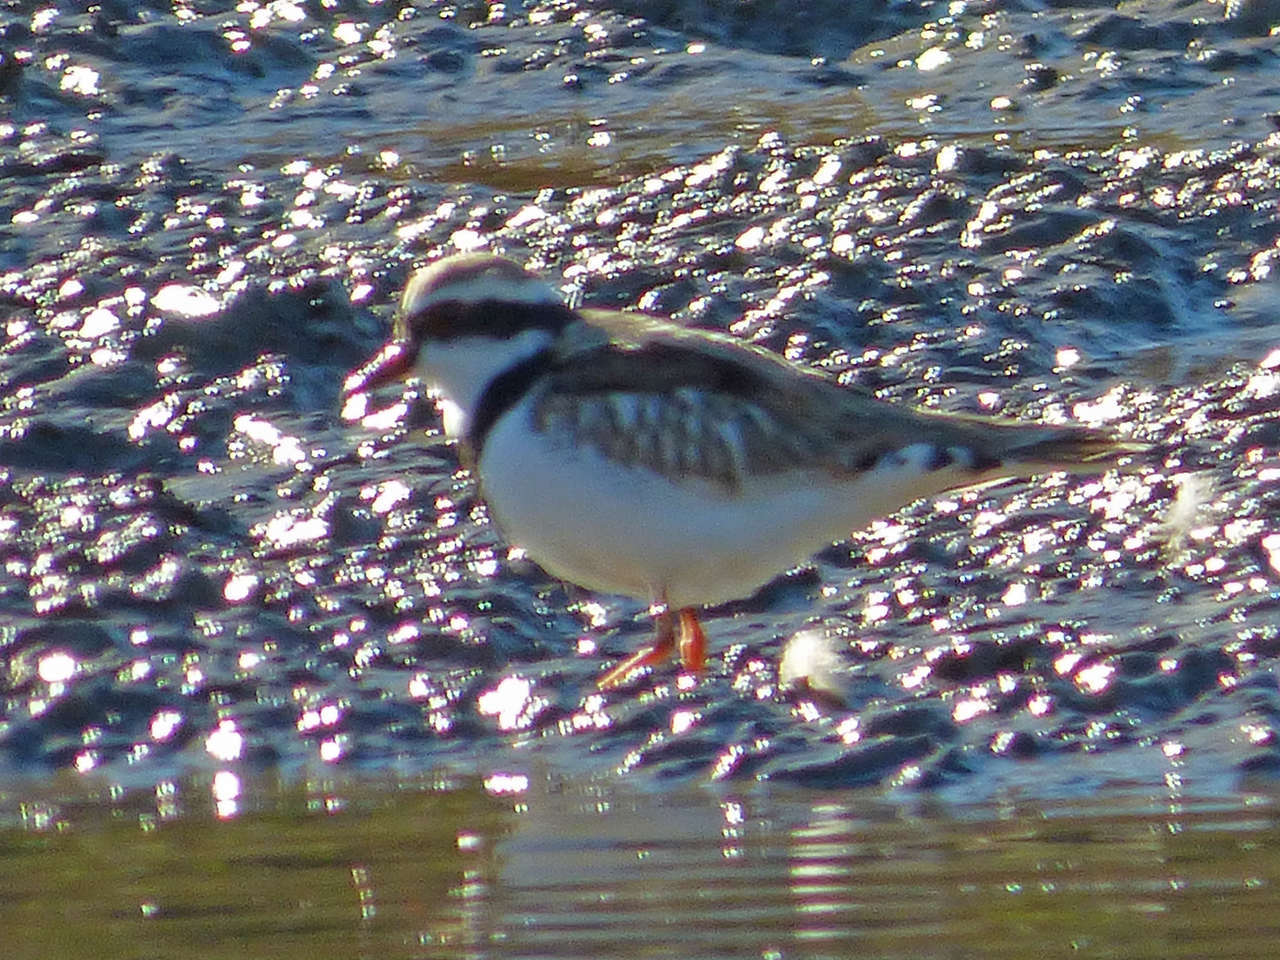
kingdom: Animalia
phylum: Chordata
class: Aves
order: Charadriiformes
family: Charadriidae
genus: Elseyornis
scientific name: Elseyornis melanops
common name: Black-fronted dotterel
